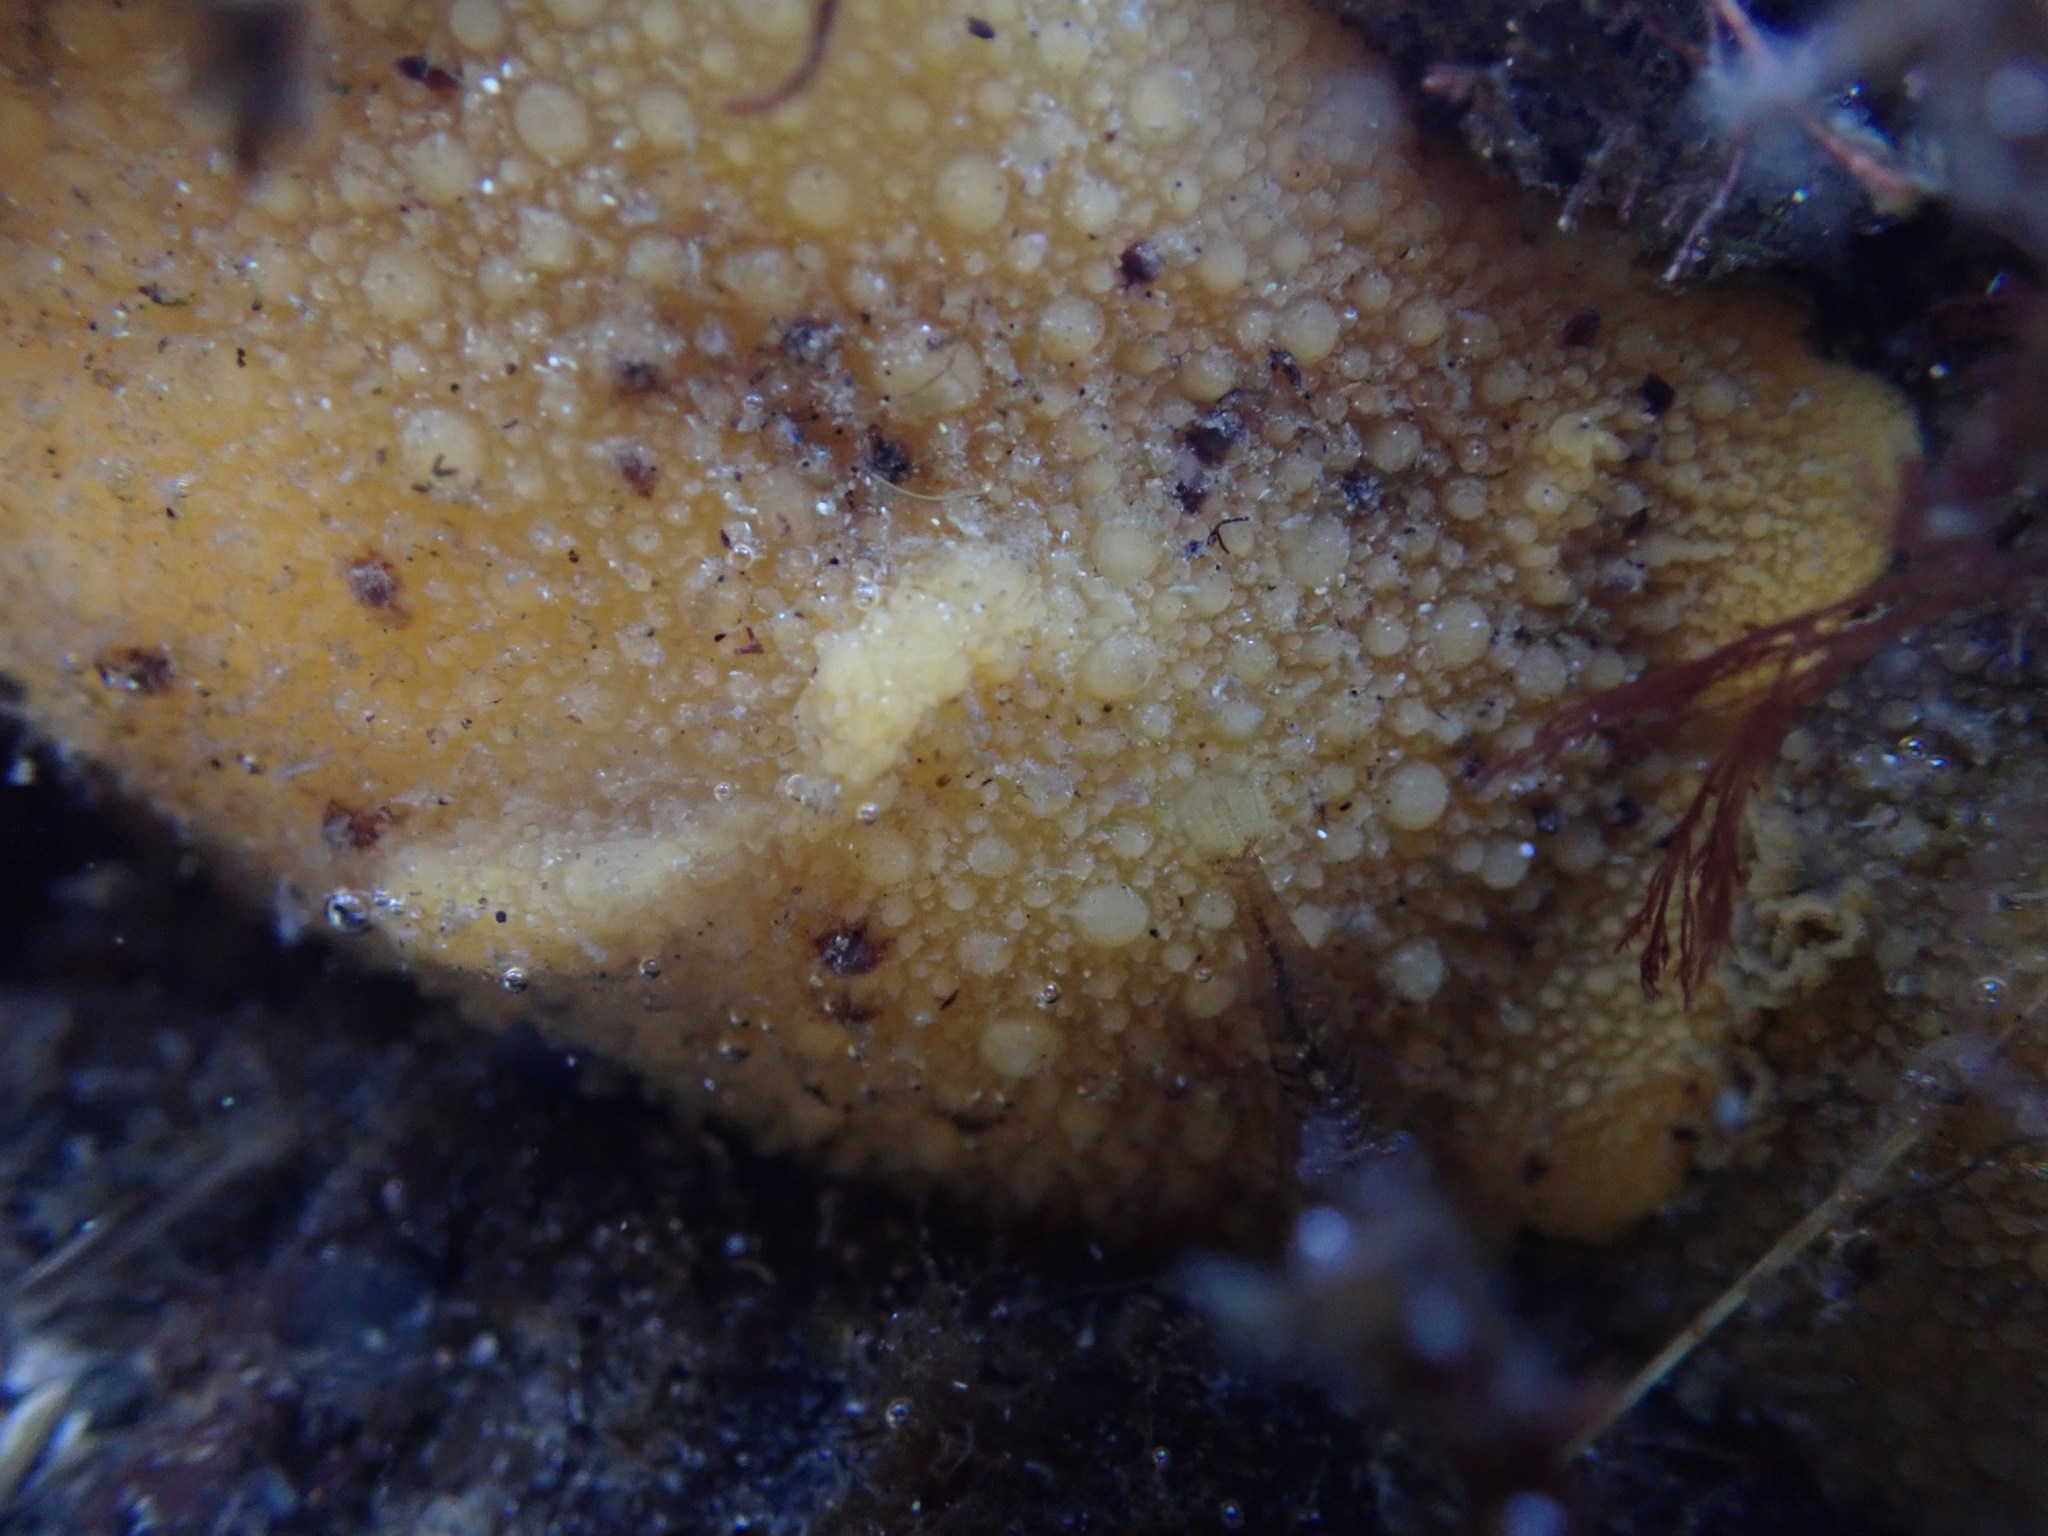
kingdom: Animalia
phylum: Mollusca
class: Gastropoda
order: Nudibranchia
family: Dorididae
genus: Doris
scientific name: Doris montereyensis
